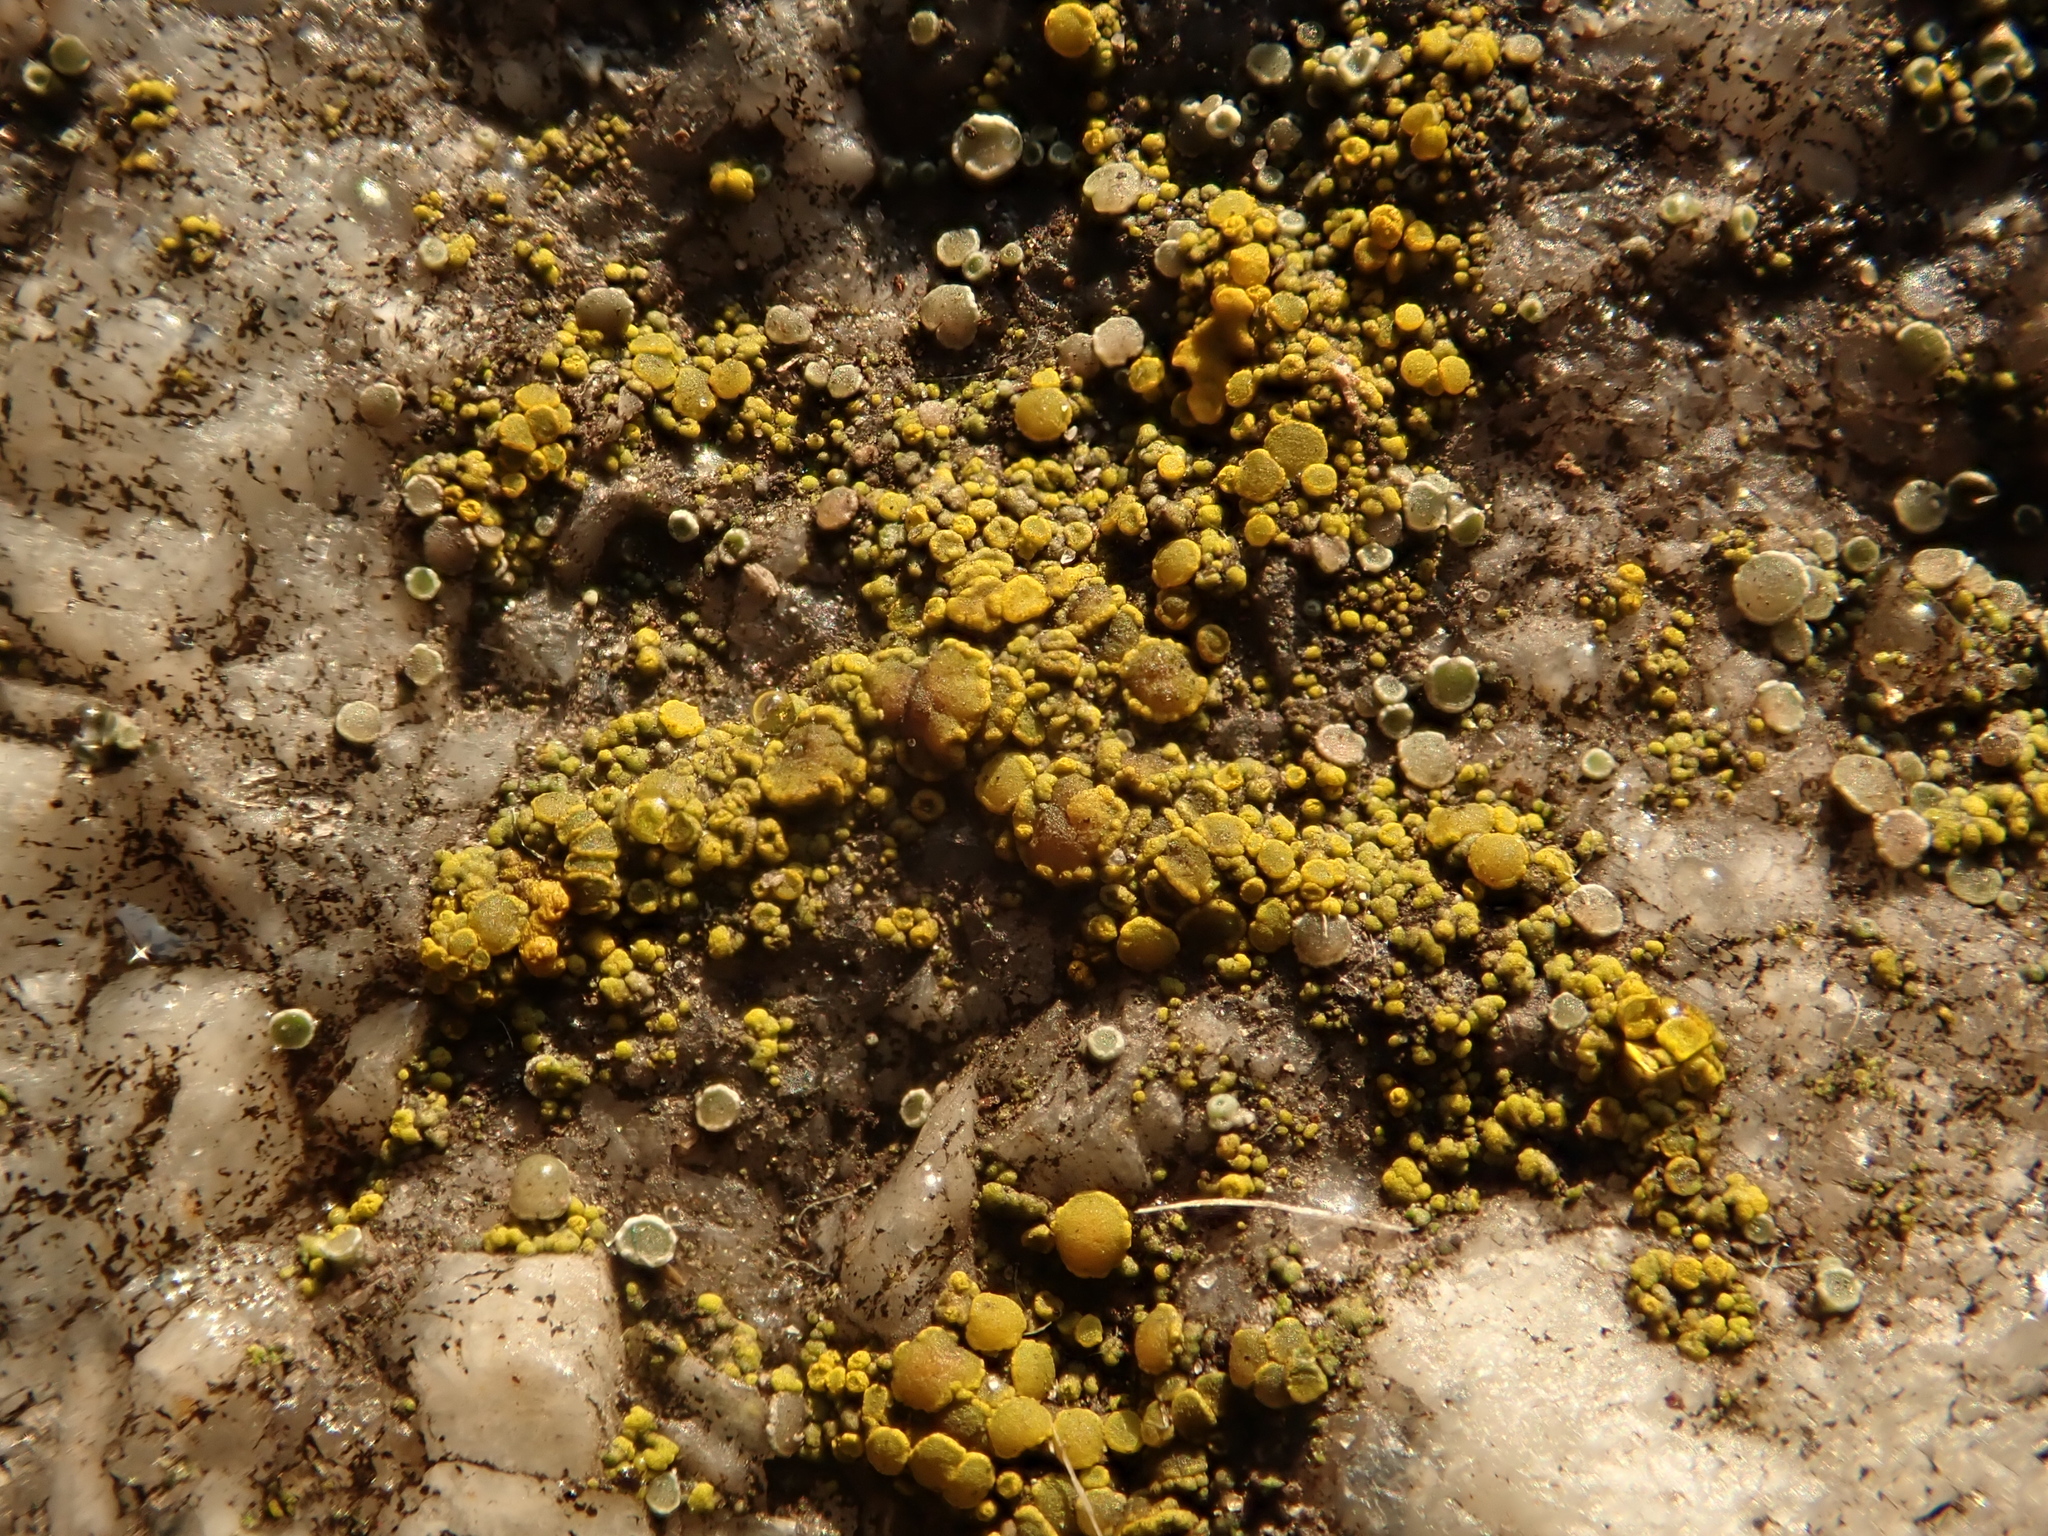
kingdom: Fungi
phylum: Ascomycota
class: Candelariomycetes
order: Candelariales
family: Candelariaceae
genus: Candelariella
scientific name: Candelariella vitellina
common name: Common goldspeck
